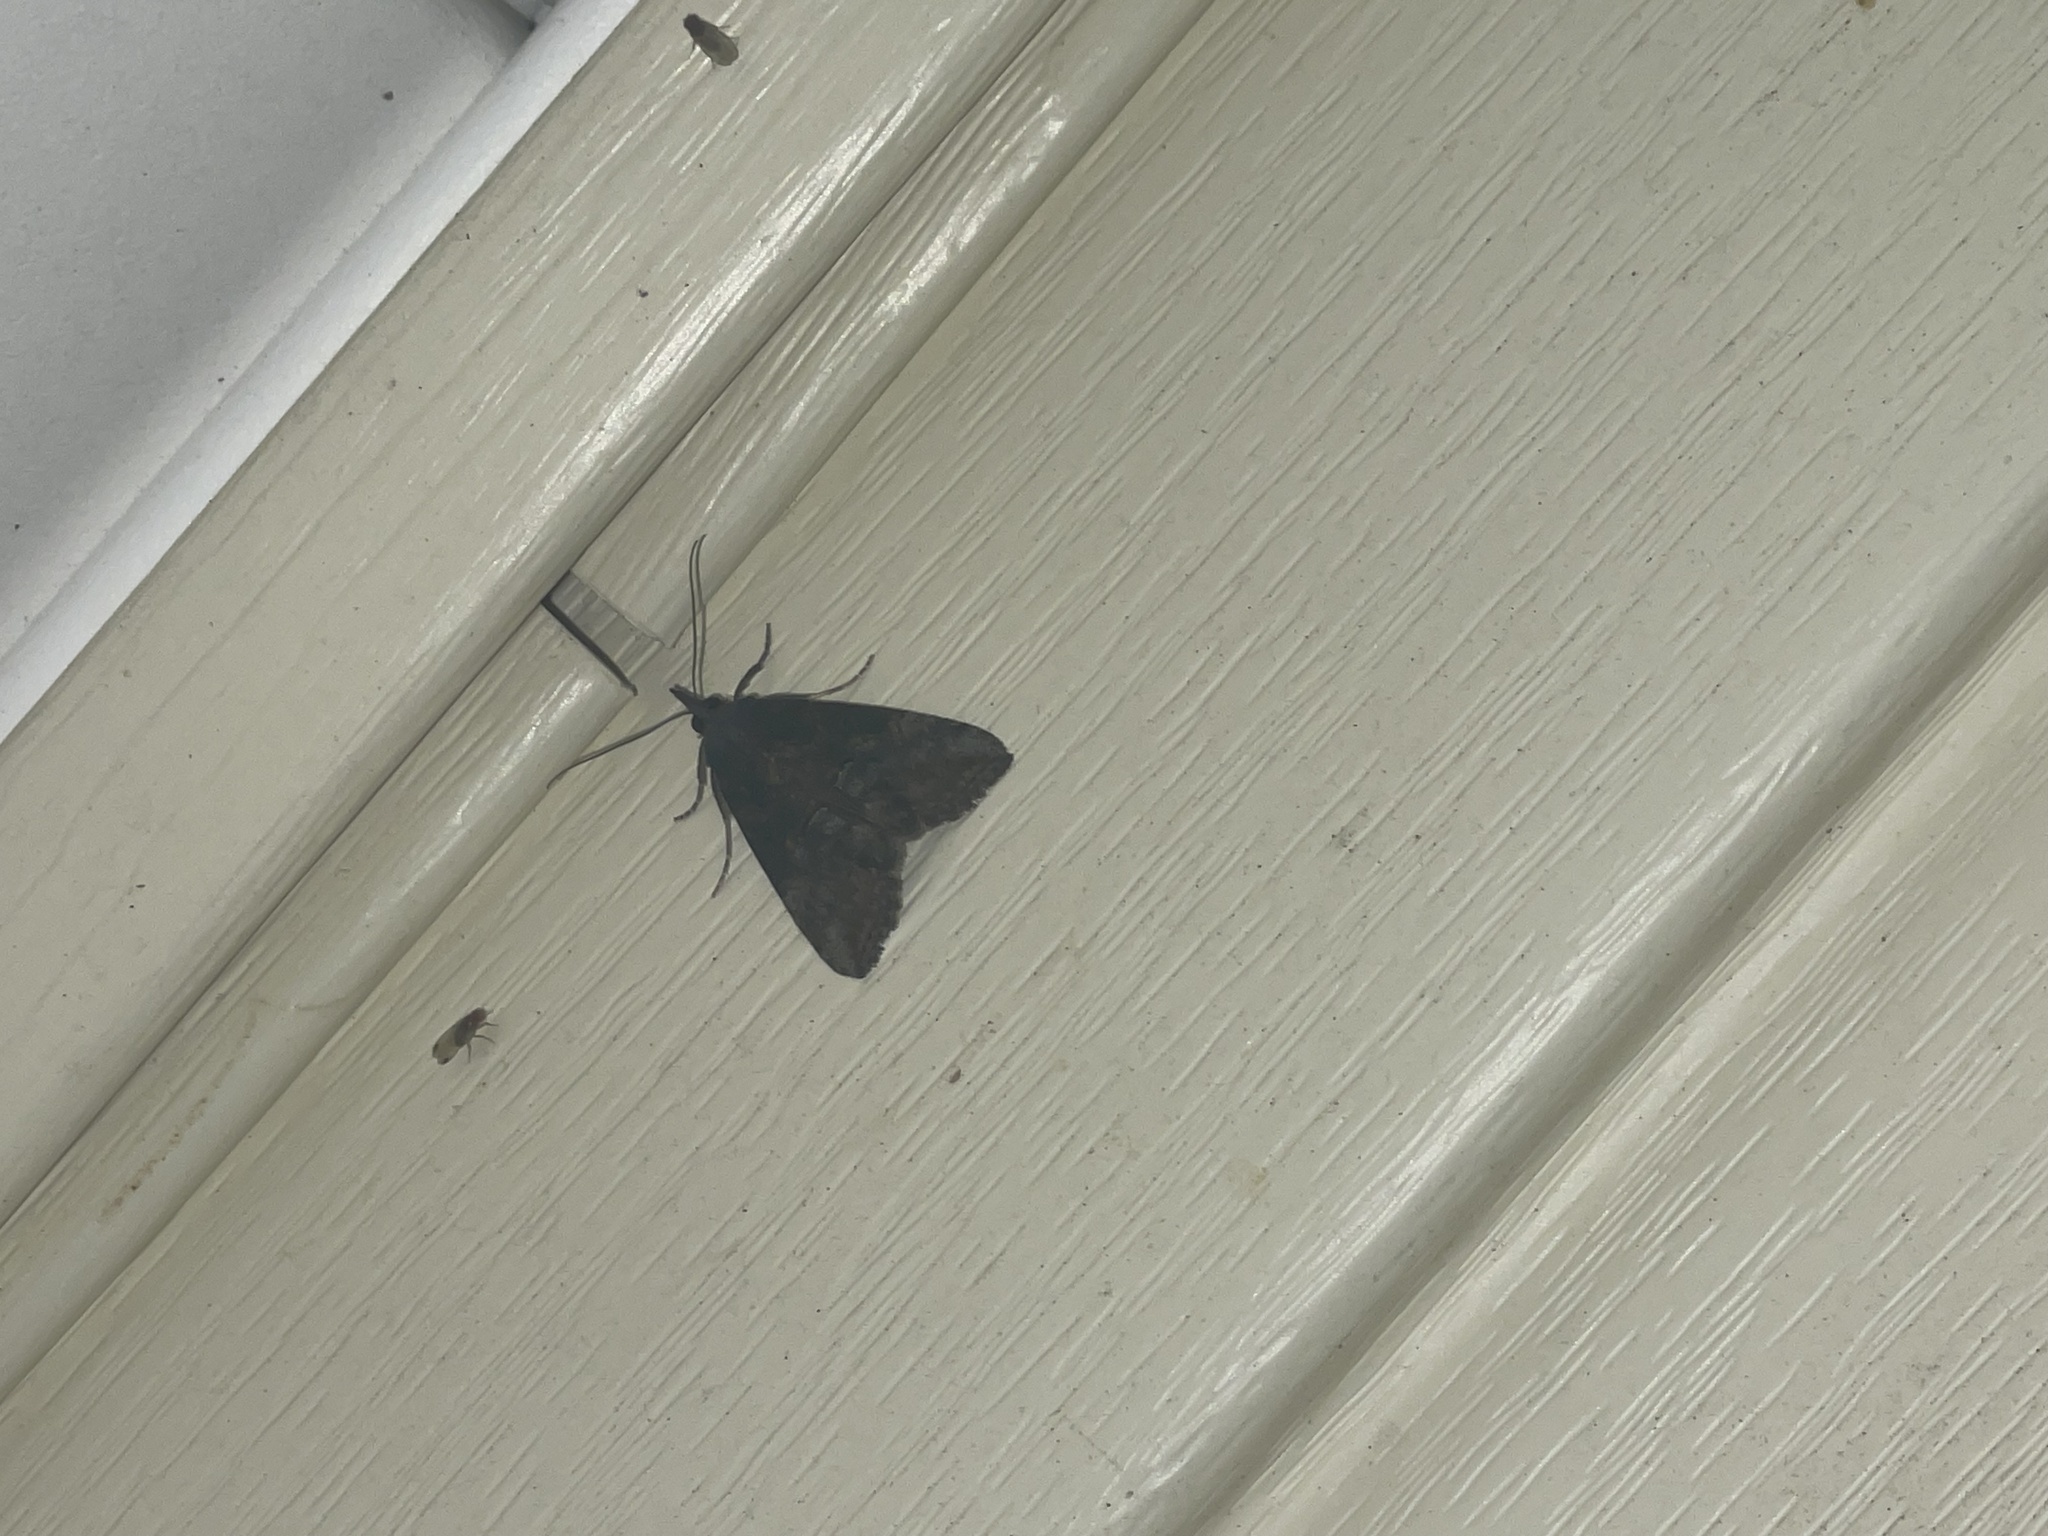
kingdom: Animalia
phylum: Arthropoda
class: Insecta
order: Lepidoptera
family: Erebidae
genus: Hypena
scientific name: Hypena scabra
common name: Green cloverworm
